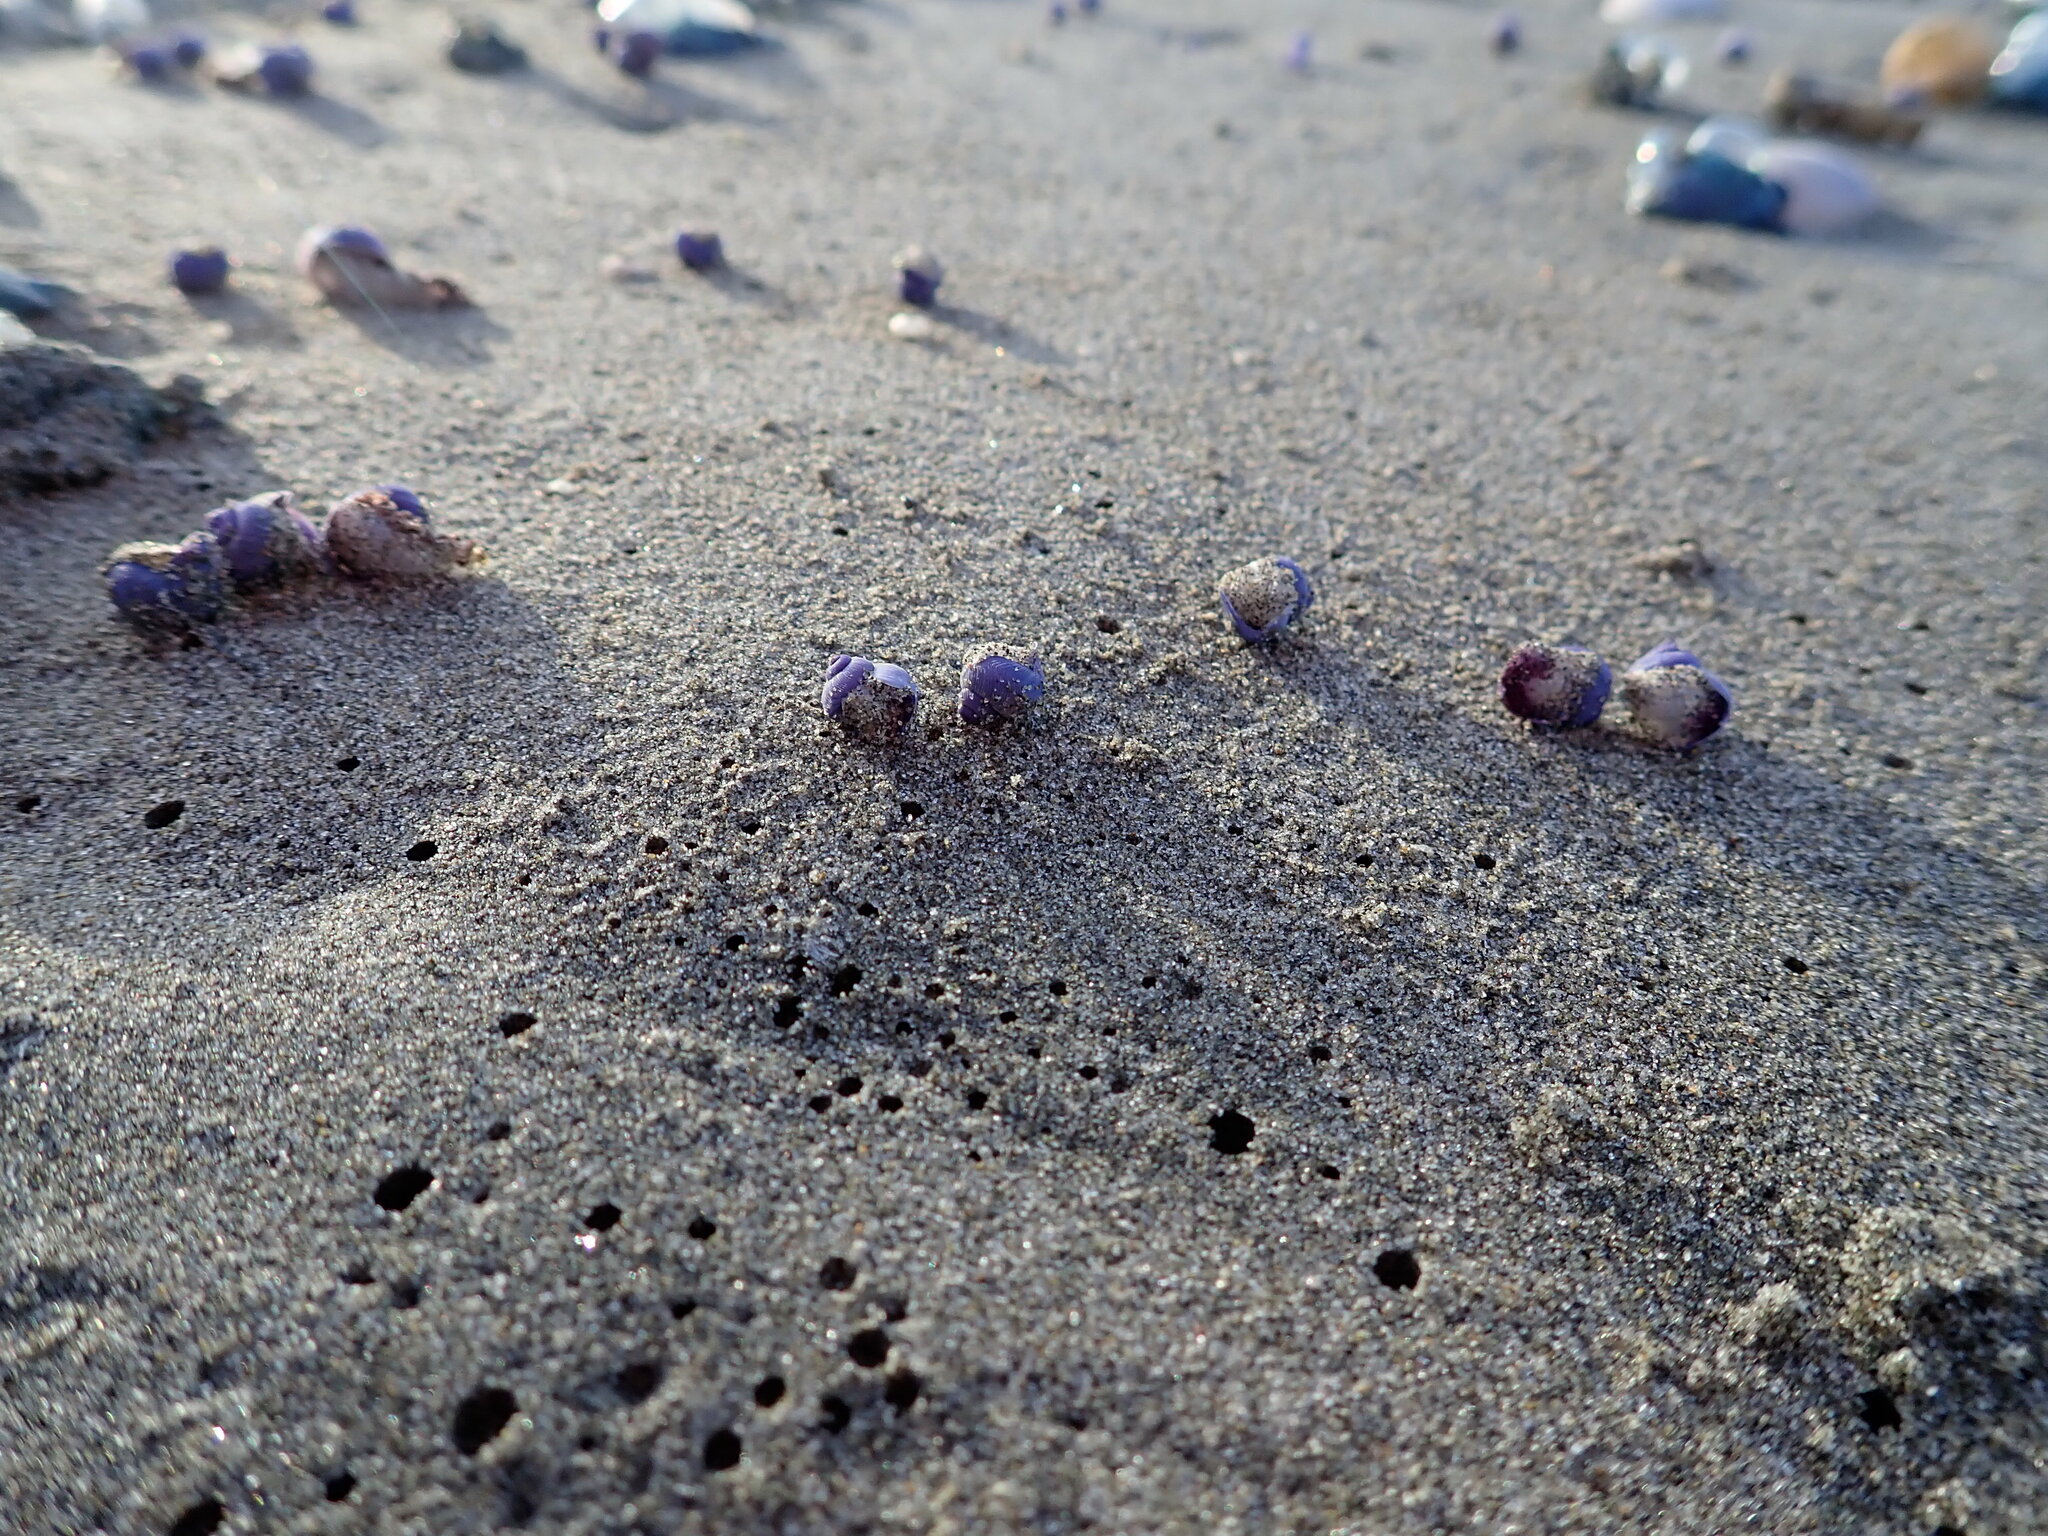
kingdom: Animalia
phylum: Mollusca
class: Gastropoda
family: Epitoniidae
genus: Janthina
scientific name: Janthina exigua
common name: Dwarf janthina
